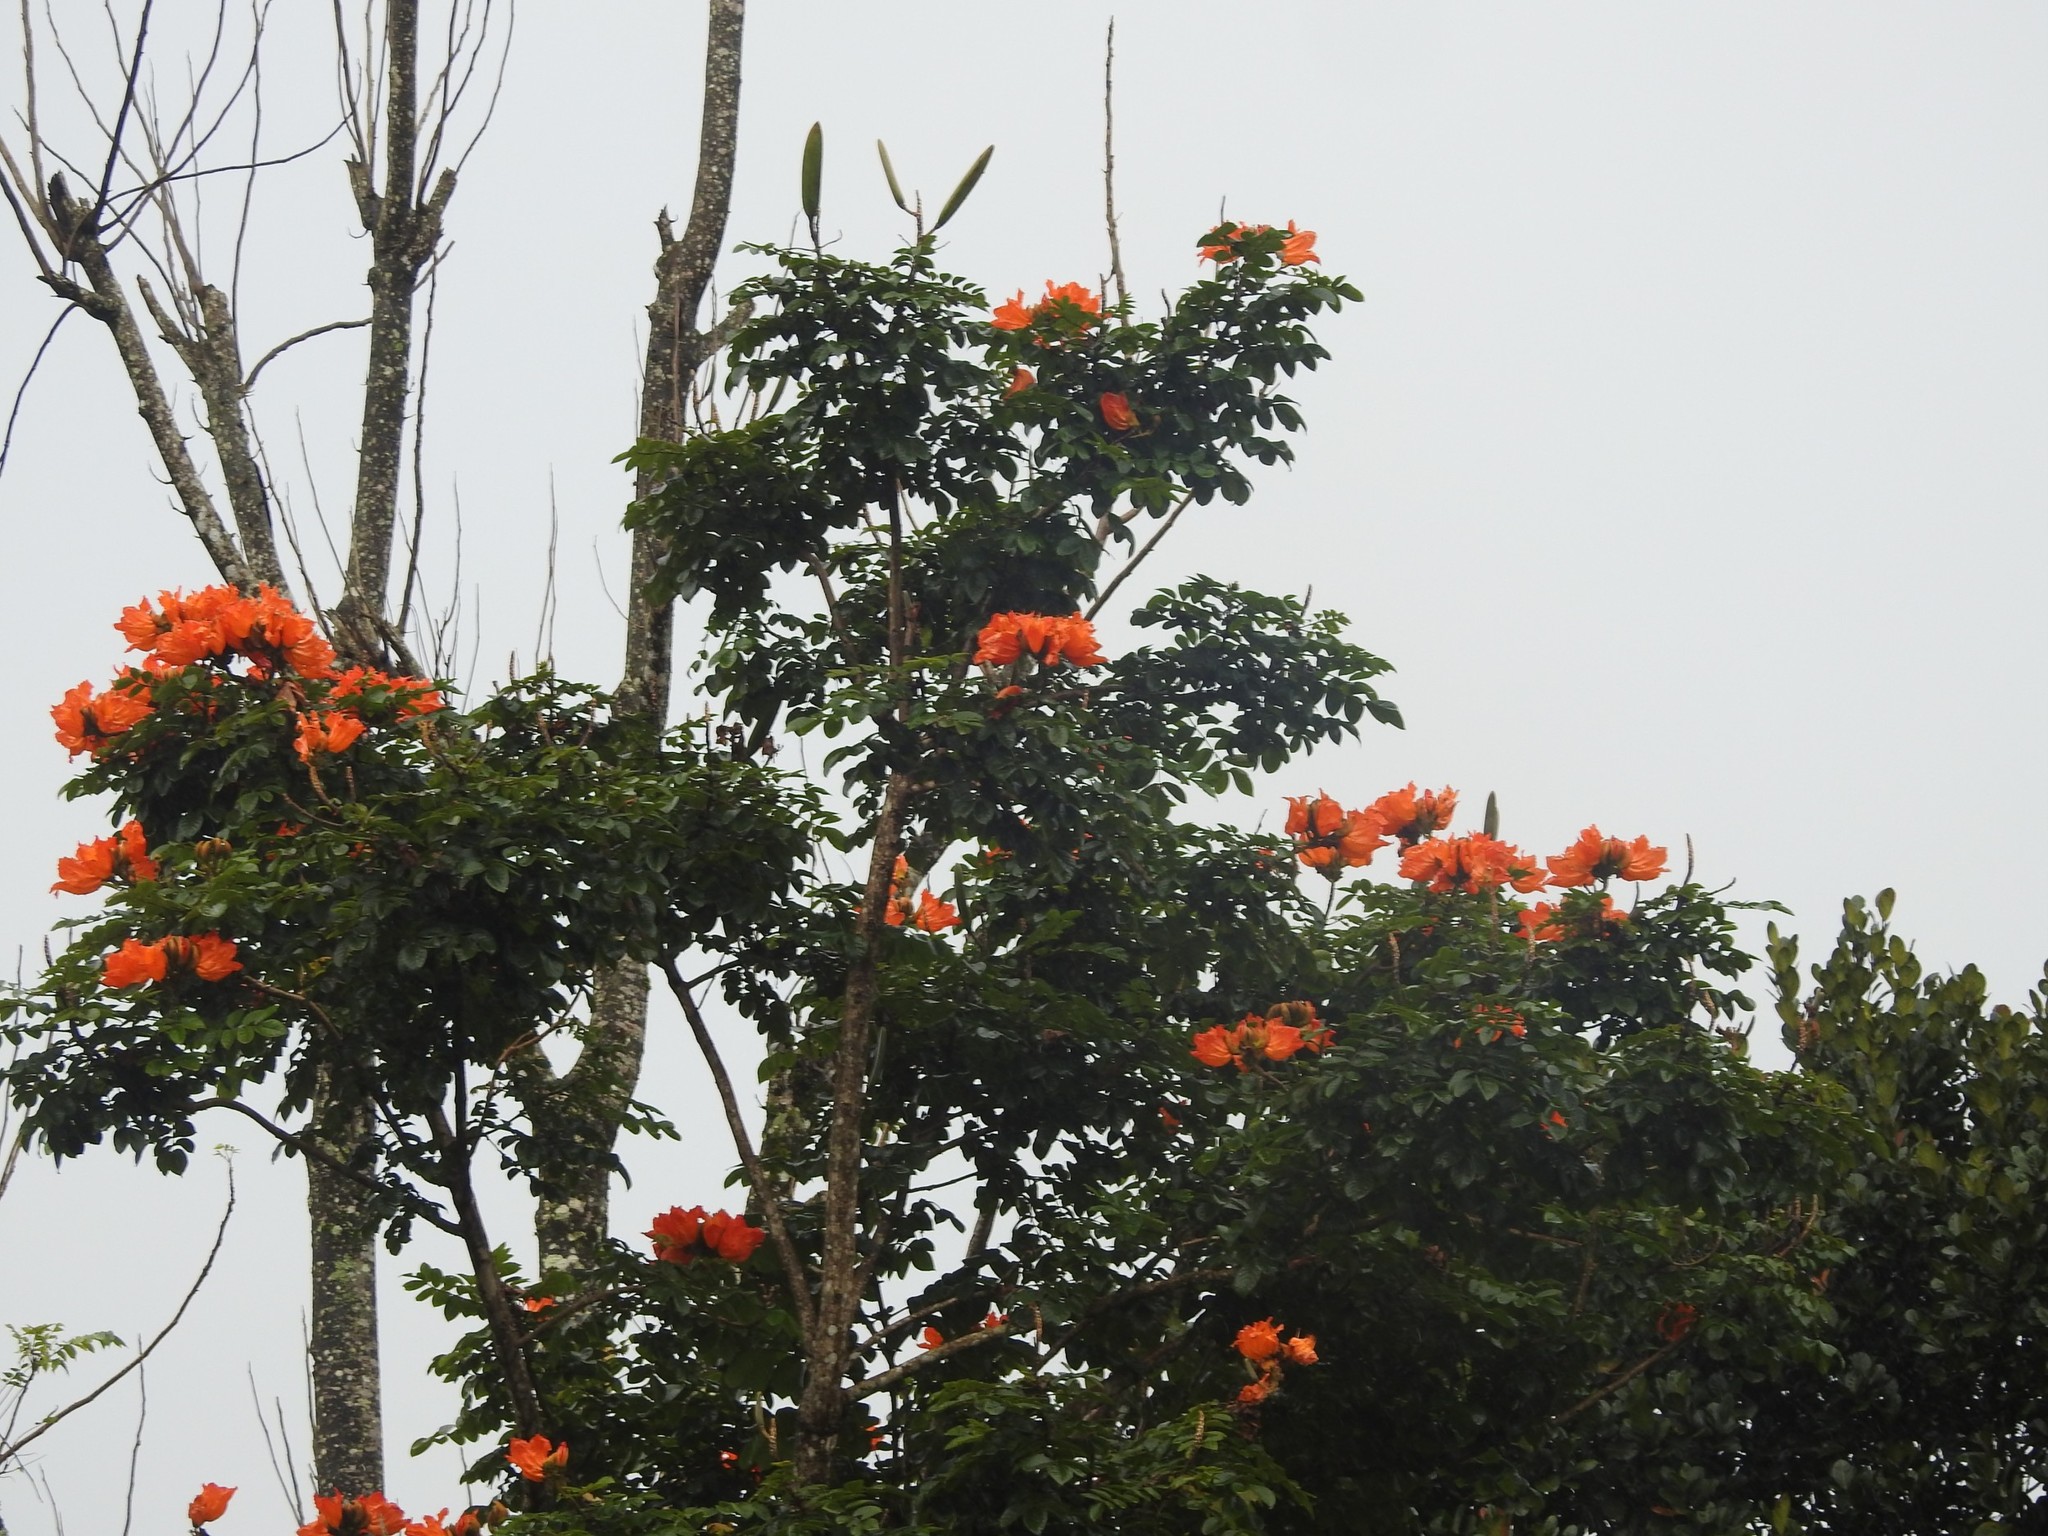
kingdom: Plantae
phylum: Tracheophyta
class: Magnoliopsida
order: Lamiales
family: Bignoniaceae
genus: Spathodea
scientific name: Spathodea campanulata
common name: African tuliptree
